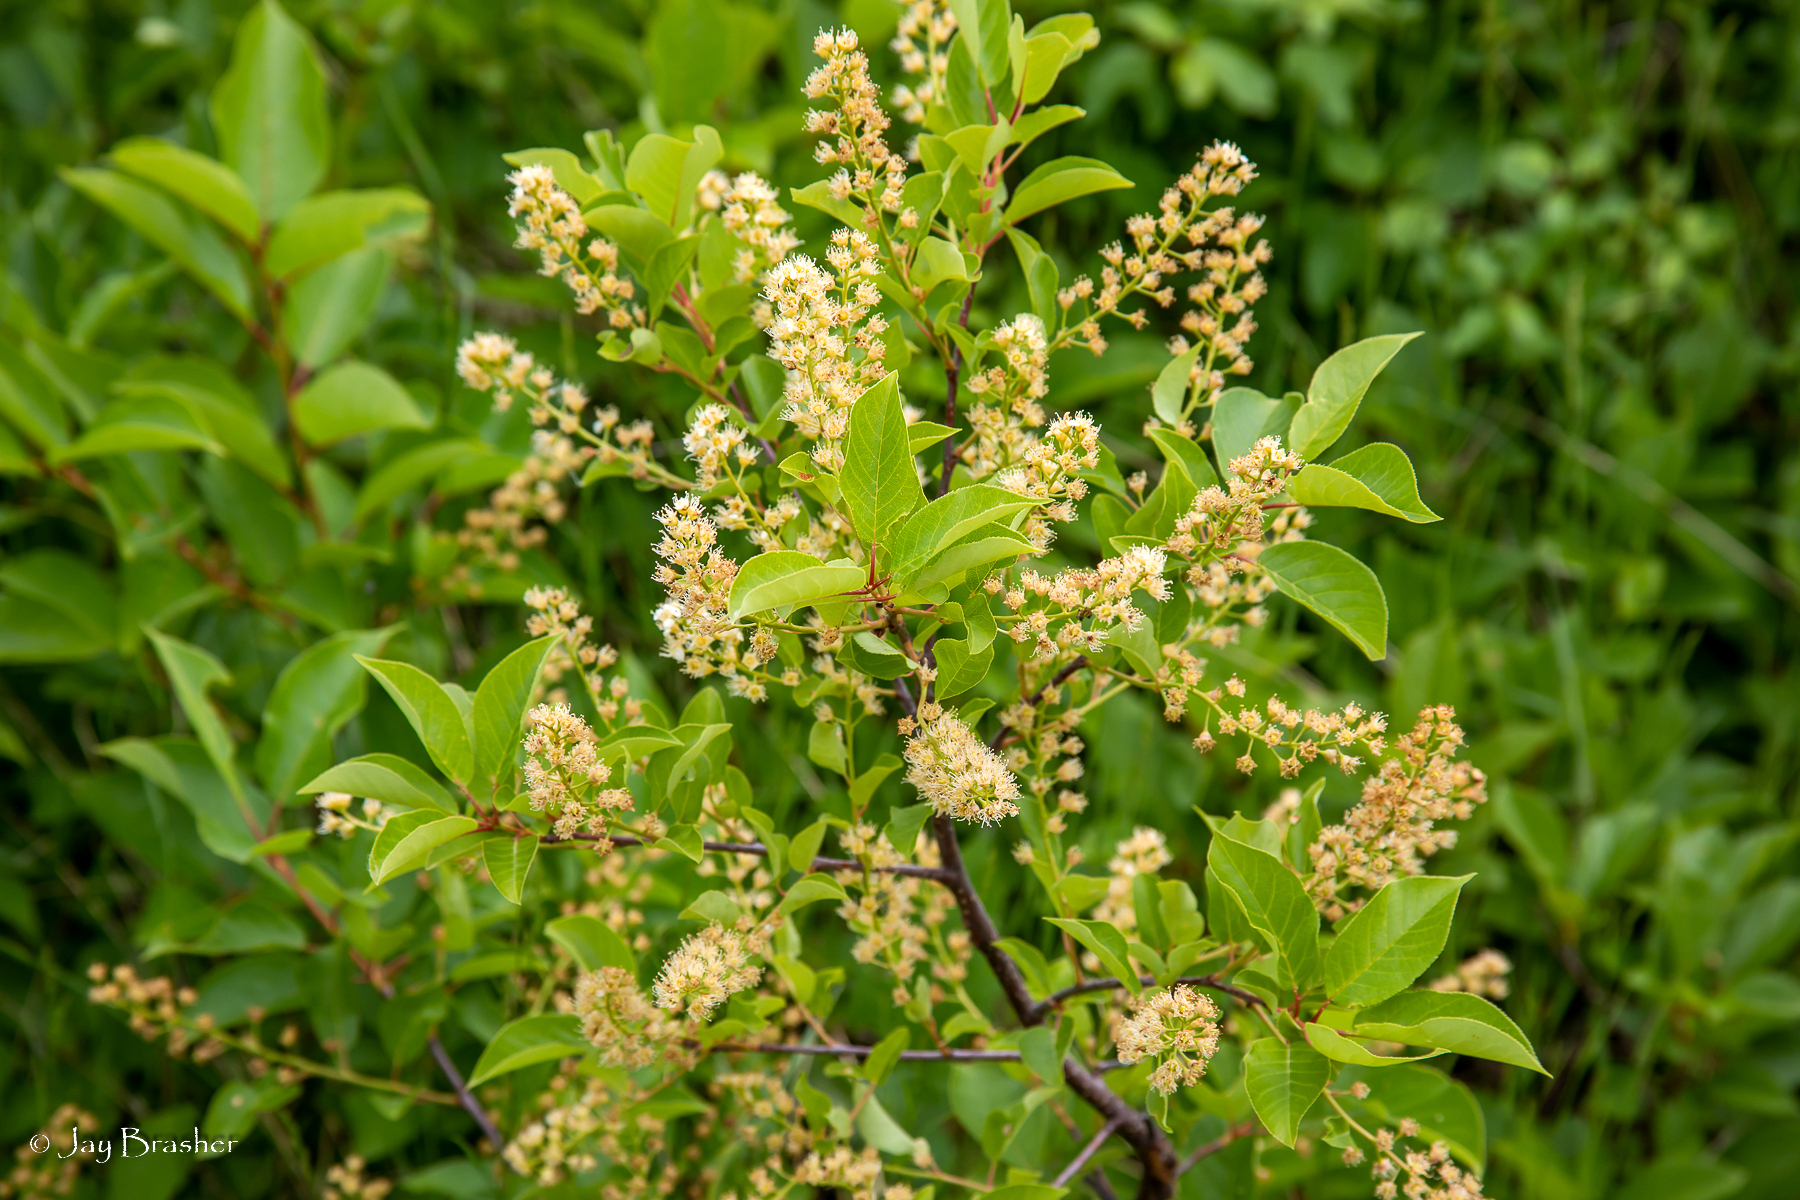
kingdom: Plantae
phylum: Tracheophyta
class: Magnoliopsida
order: Rosales
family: Rosaceae
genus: Prunus
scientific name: Prunus virginiana
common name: Chokecherry
